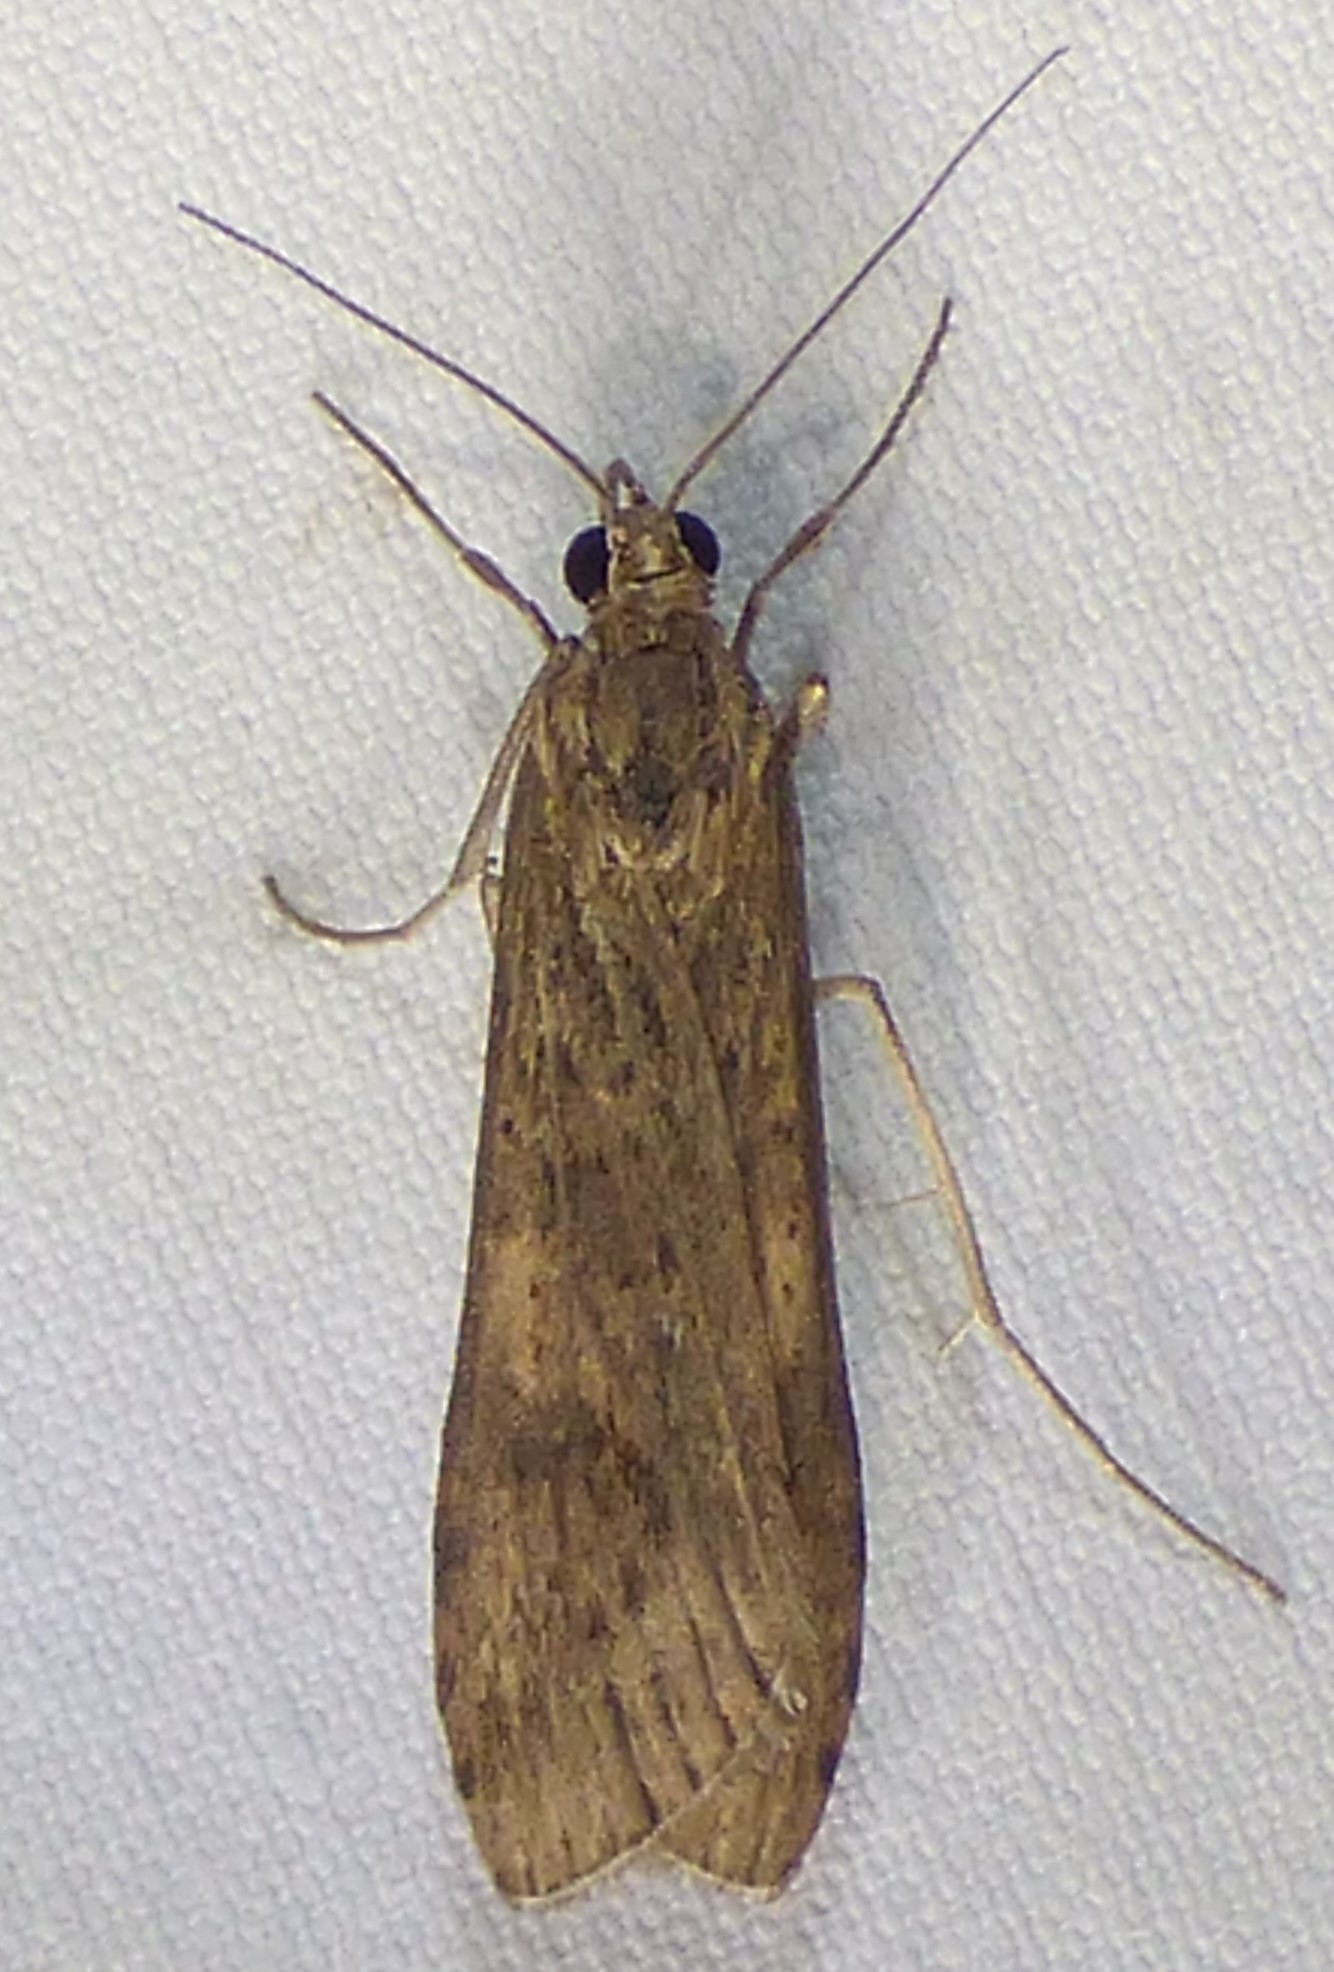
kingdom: Animalia
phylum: Arthropoda
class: Insecta
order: Lepidoptera
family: Crambidae
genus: Nomophila
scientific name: Nomophila nearctica
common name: American rush veneer
